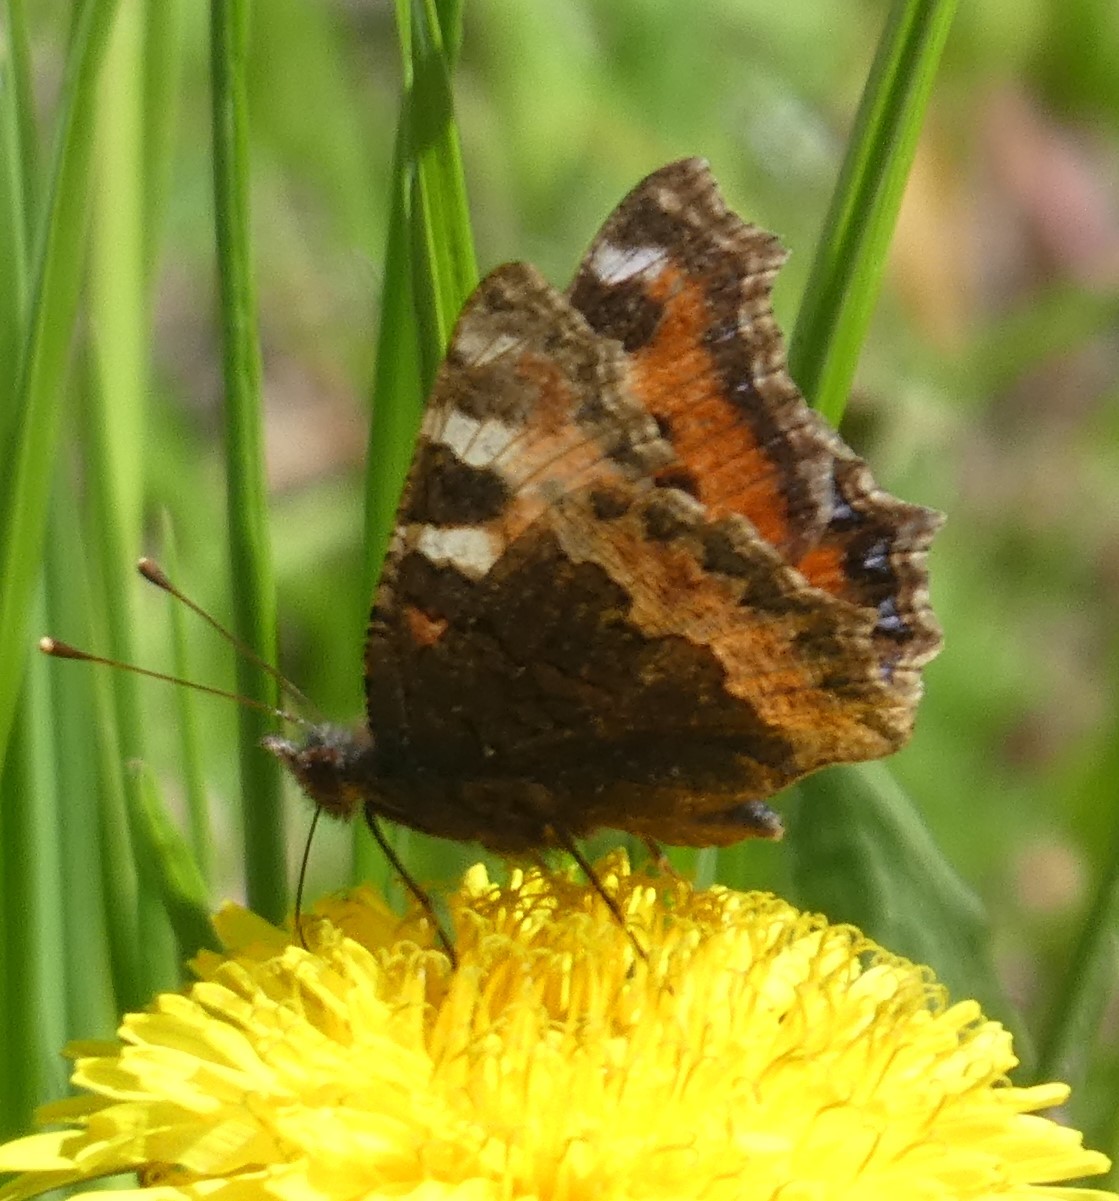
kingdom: Animalia
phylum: Arthropoda
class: Insecta
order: Lepidoptera
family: Nymphalidae
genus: Aglais
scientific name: Aglais urticae
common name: Small tortoiseshell
